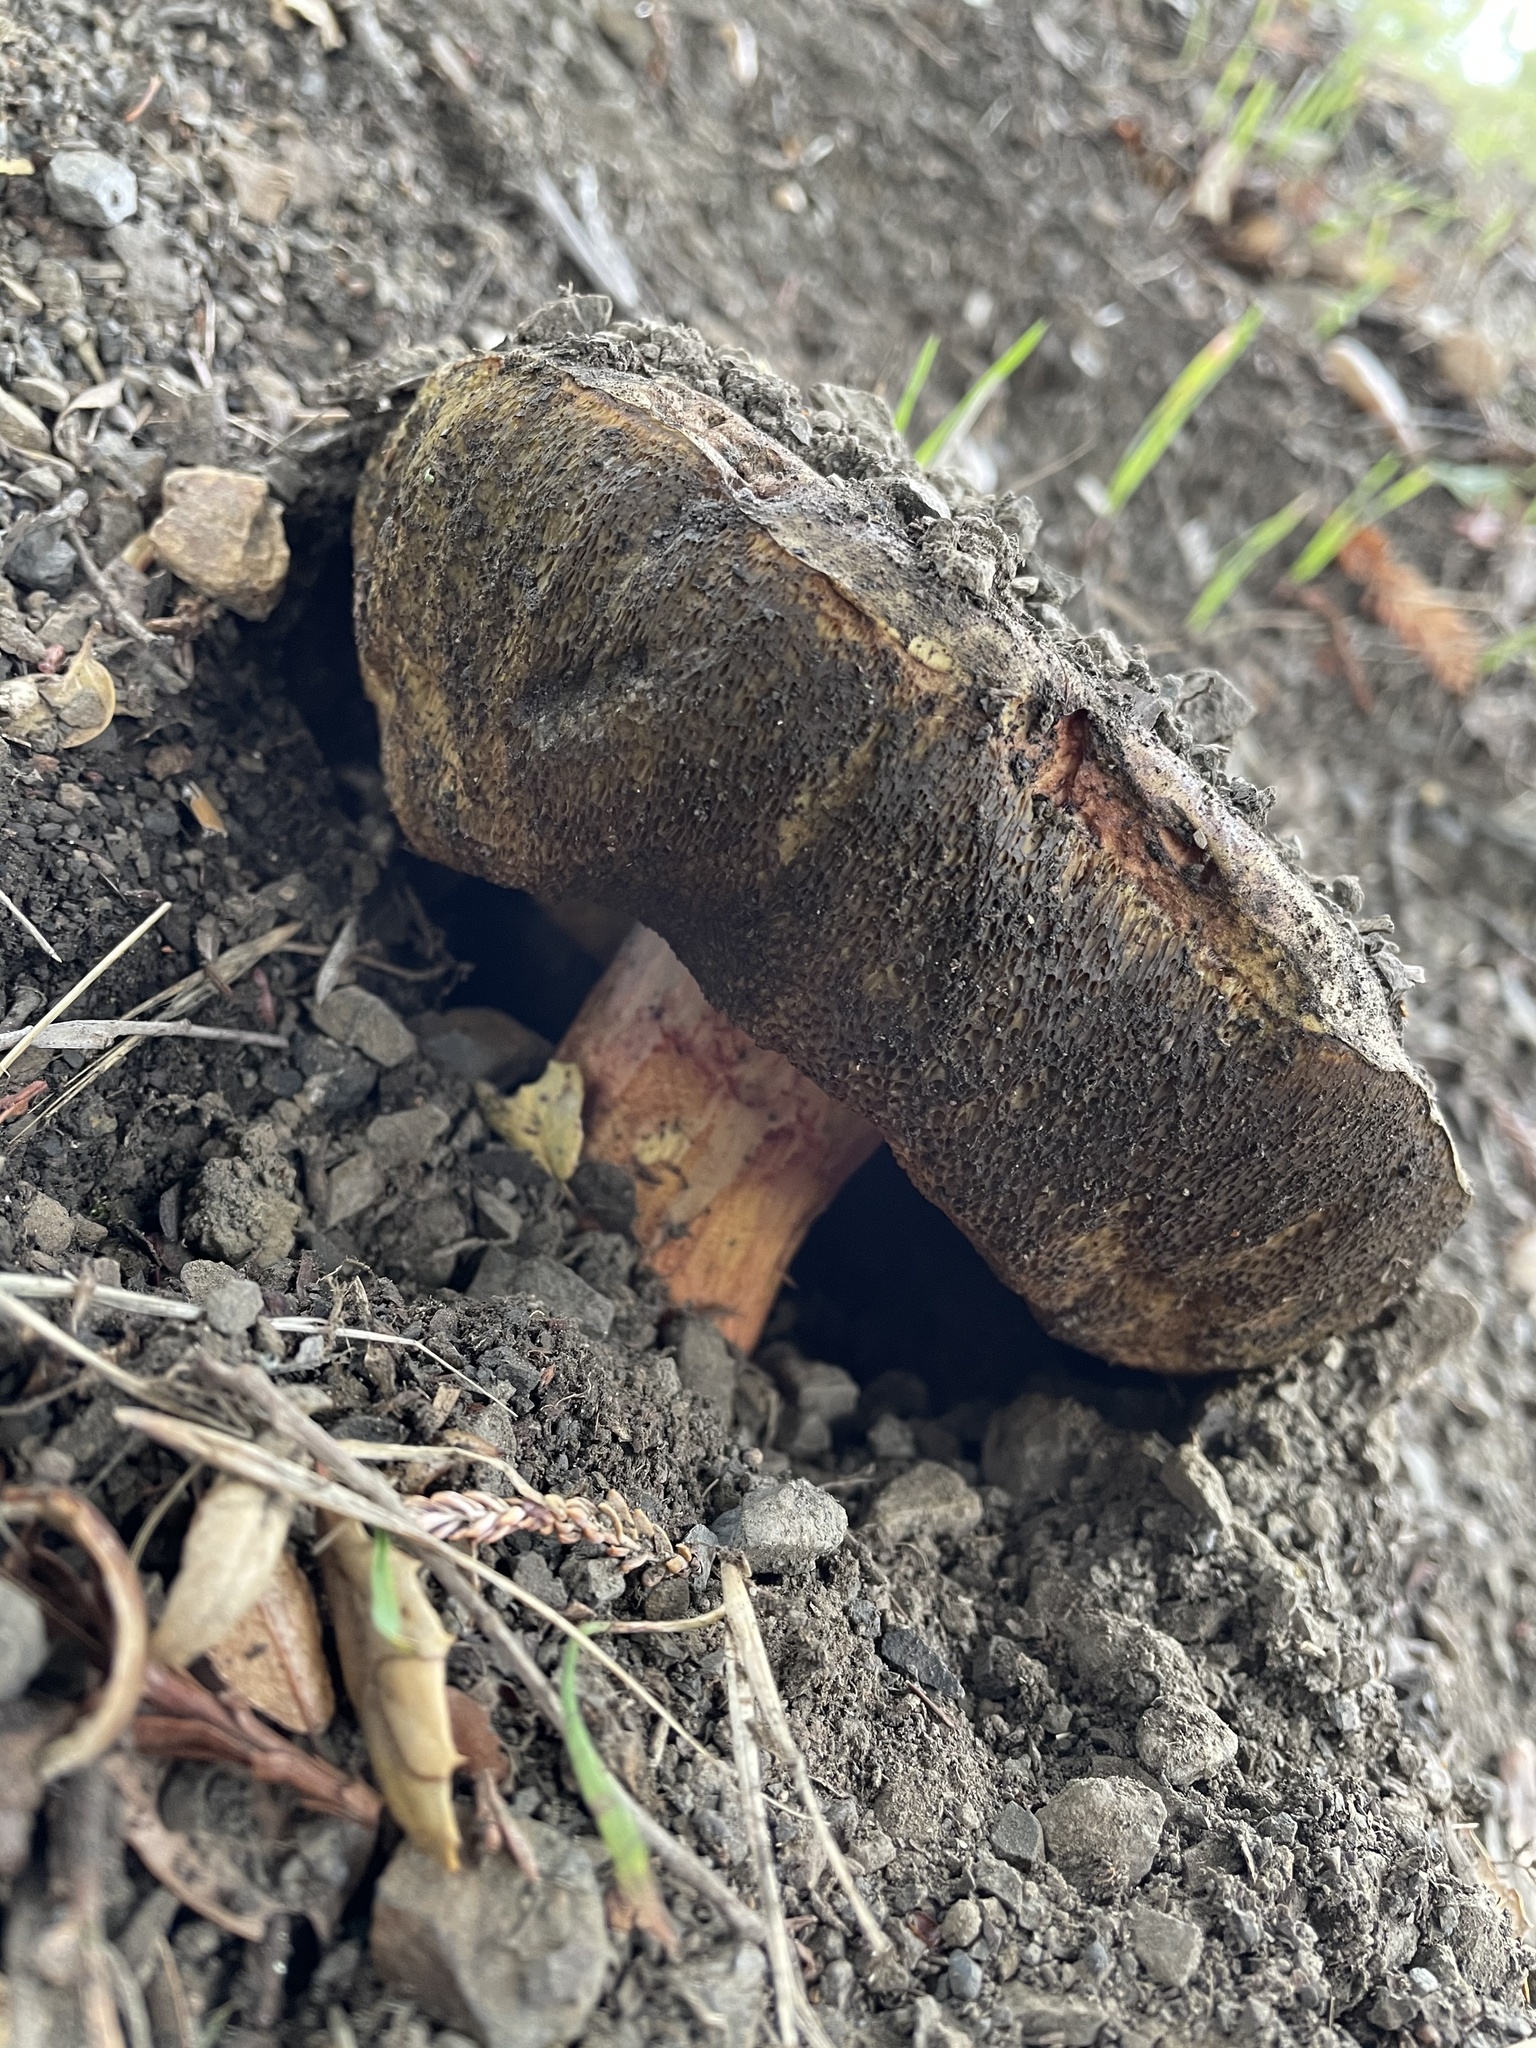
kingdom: Fungi
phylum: Basidiomycota
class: Agaricomycetes
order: Boletales
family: Boletaceae
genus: Suillellus
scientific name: Suillellus amygdalinus
